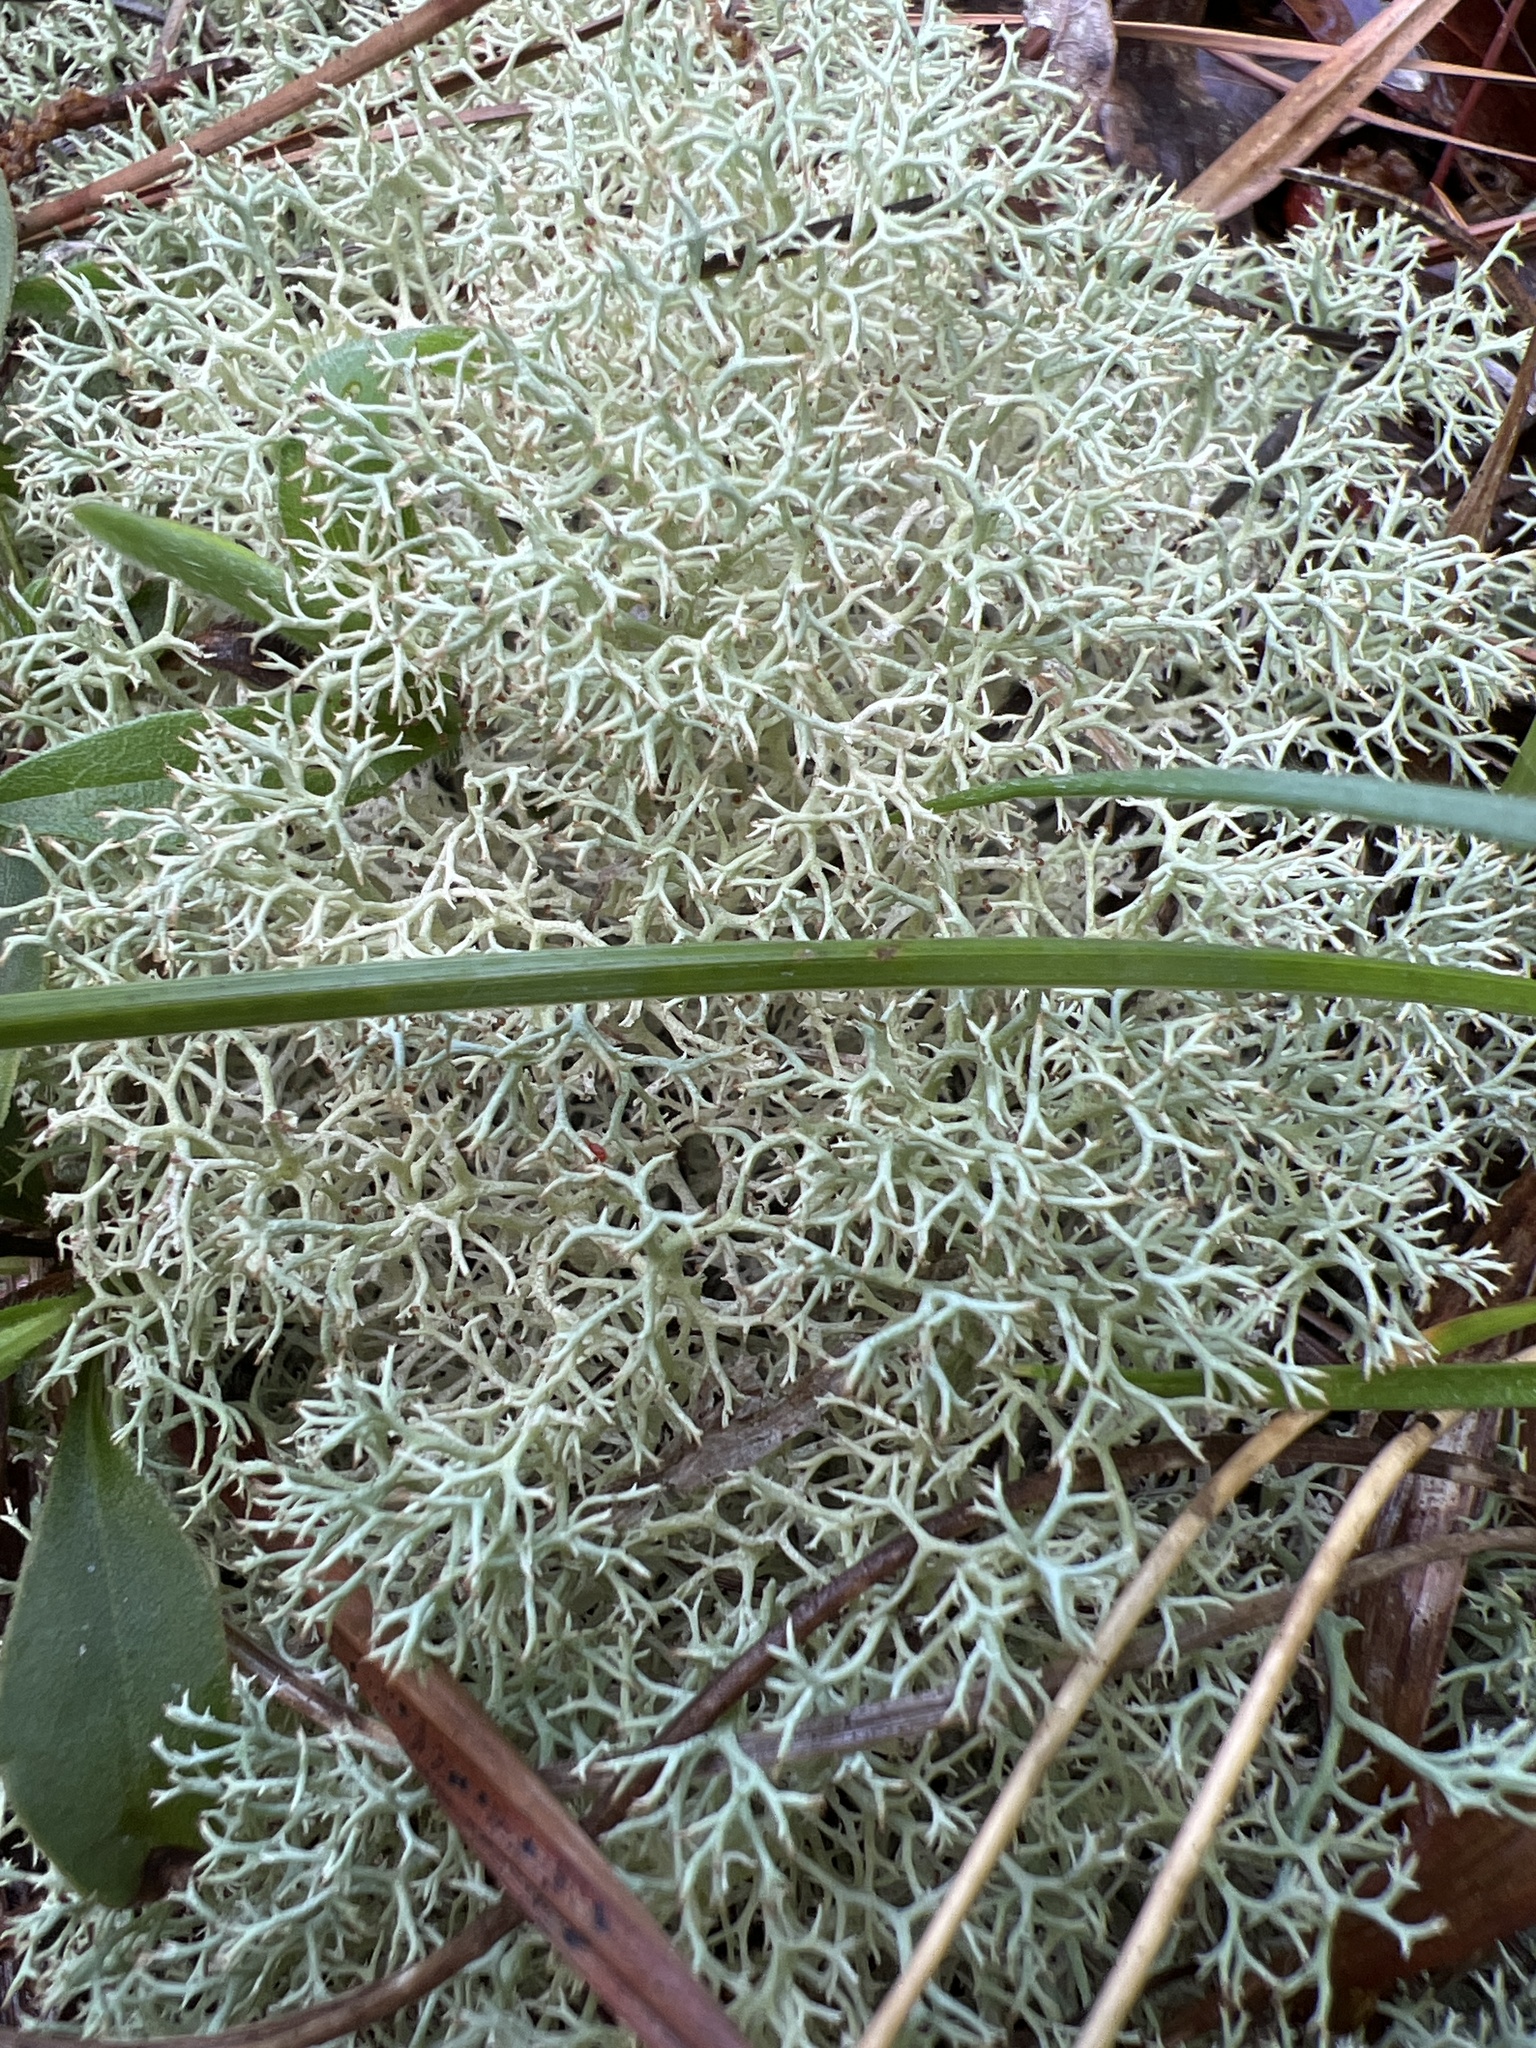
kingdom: Fungi
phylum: Ascomycota
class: Lecanoromycetes
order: Lecanorales
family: Cladoniaceae
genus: Cladonia
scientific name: Cladonia subtenuis
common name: Dixie reindeer lichen
